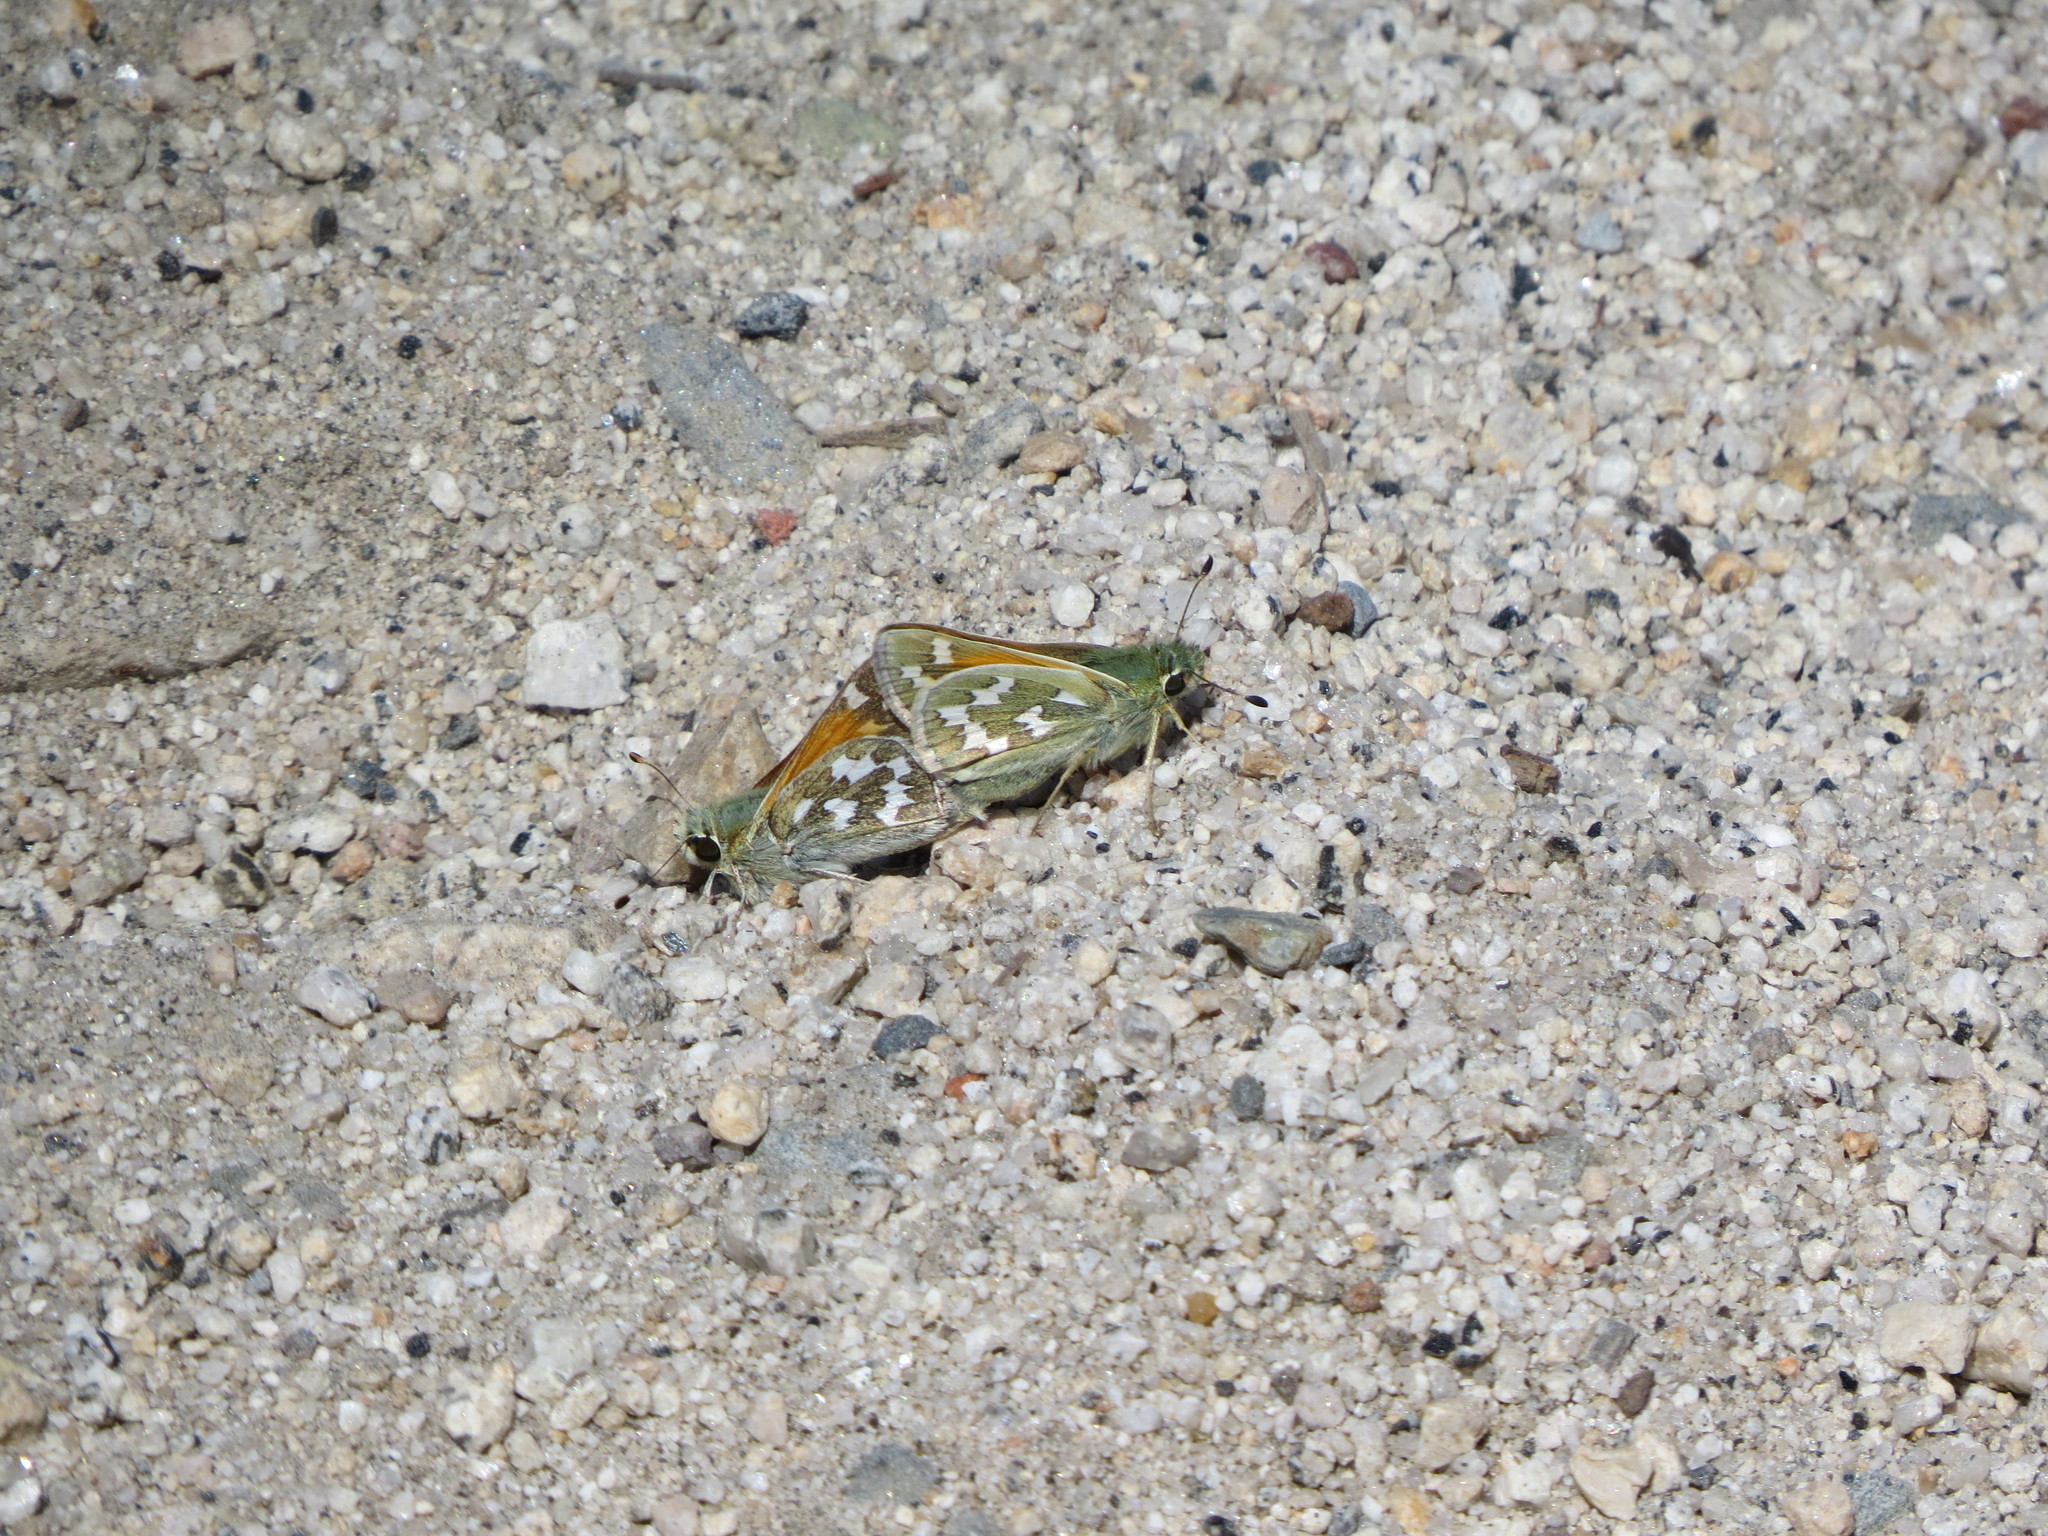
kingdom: Animalia
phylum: Arthropoda
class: Insecta
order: Lepidoptera
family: Hesperiidae
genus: Hesperia
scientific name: Hesperia juba
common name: Juba skipper
